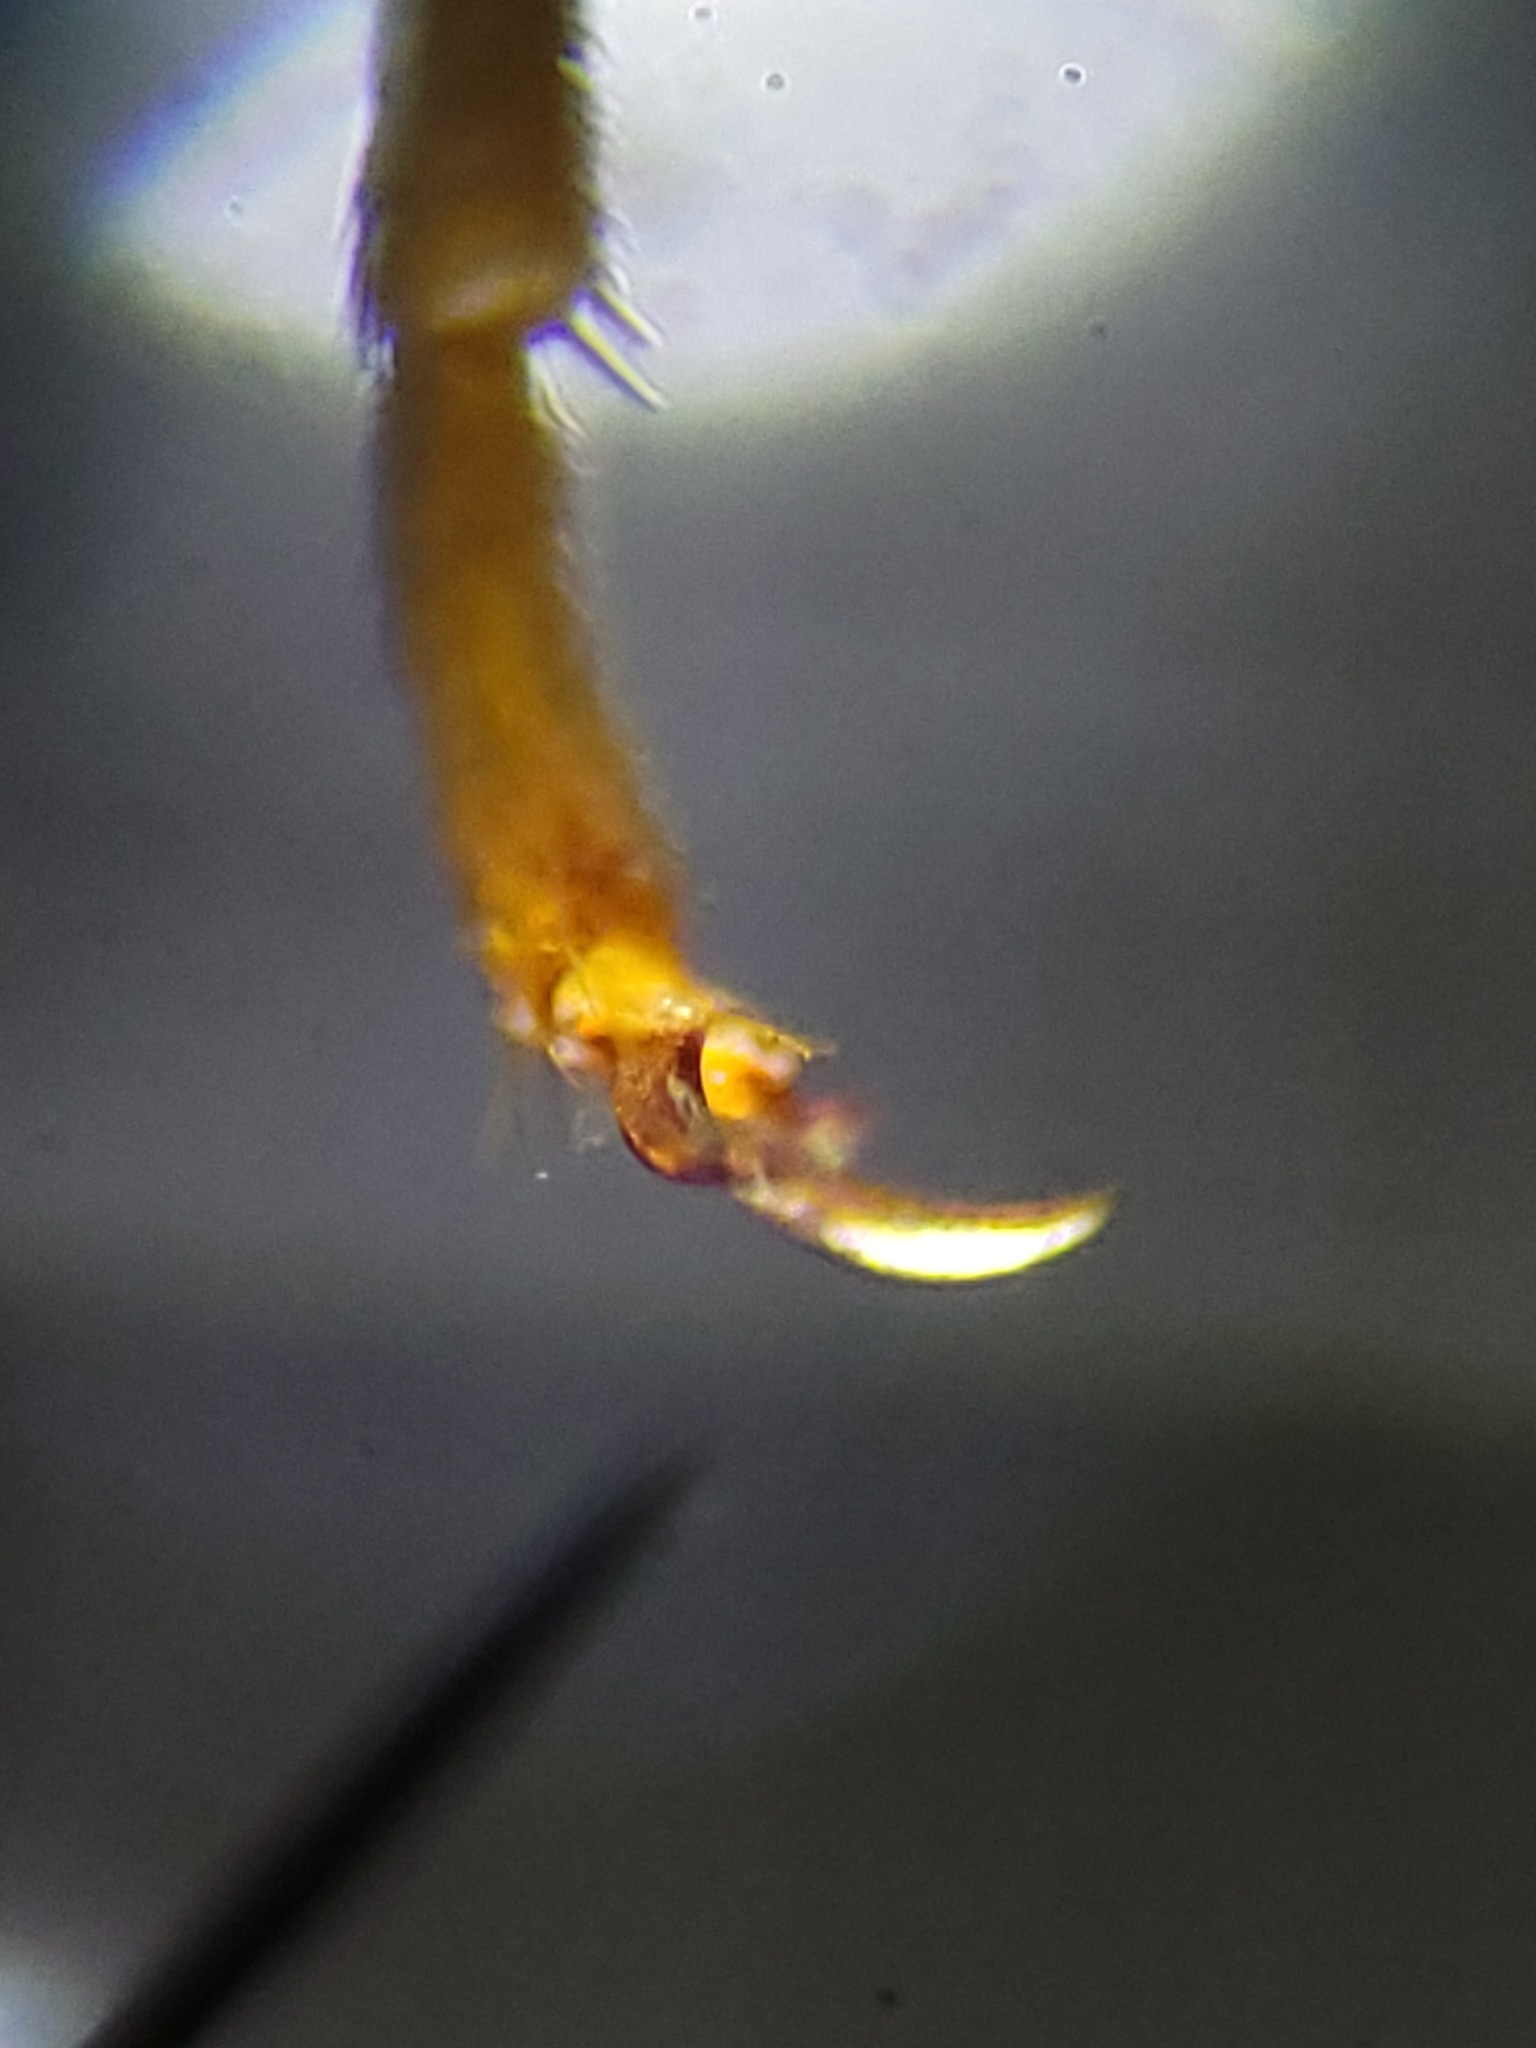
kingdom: Animalia
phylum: Arthropoda
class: Insecta
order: Coleoptera
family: Elateridae
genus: Selonodon
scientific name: Selonodon
